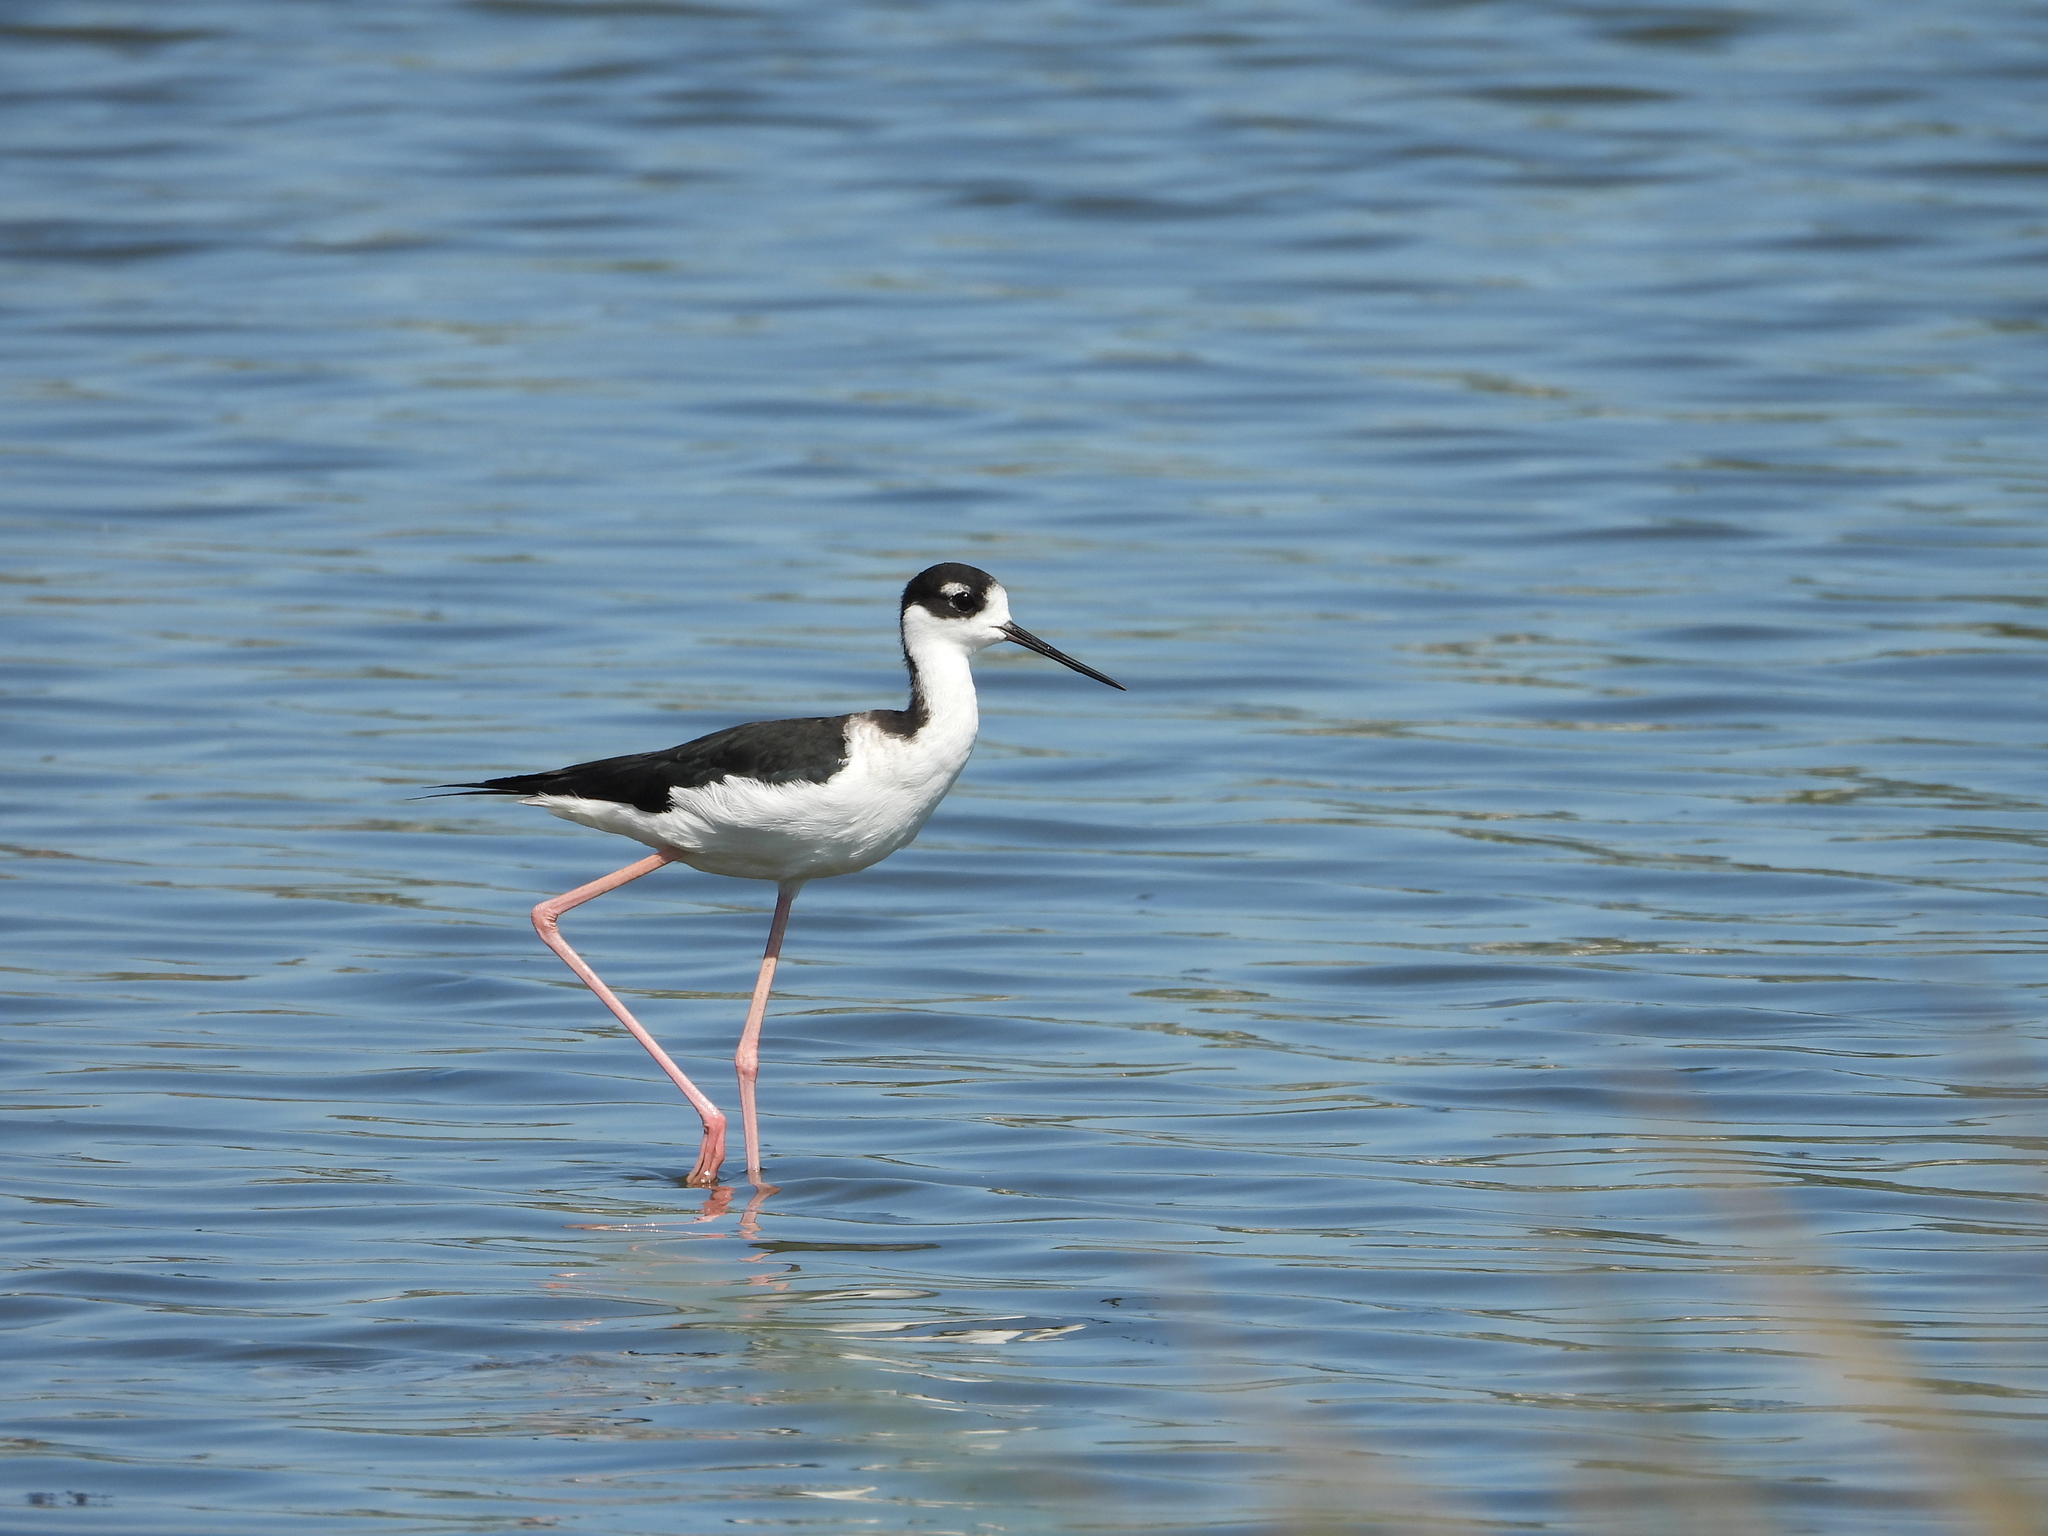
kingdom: Animalia
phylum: Chordata
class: Aves
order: Charadriiformes
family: Recurvirostridae
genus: Himantopus
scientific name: Himantopus mexicanus
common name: Black-necked stilt
